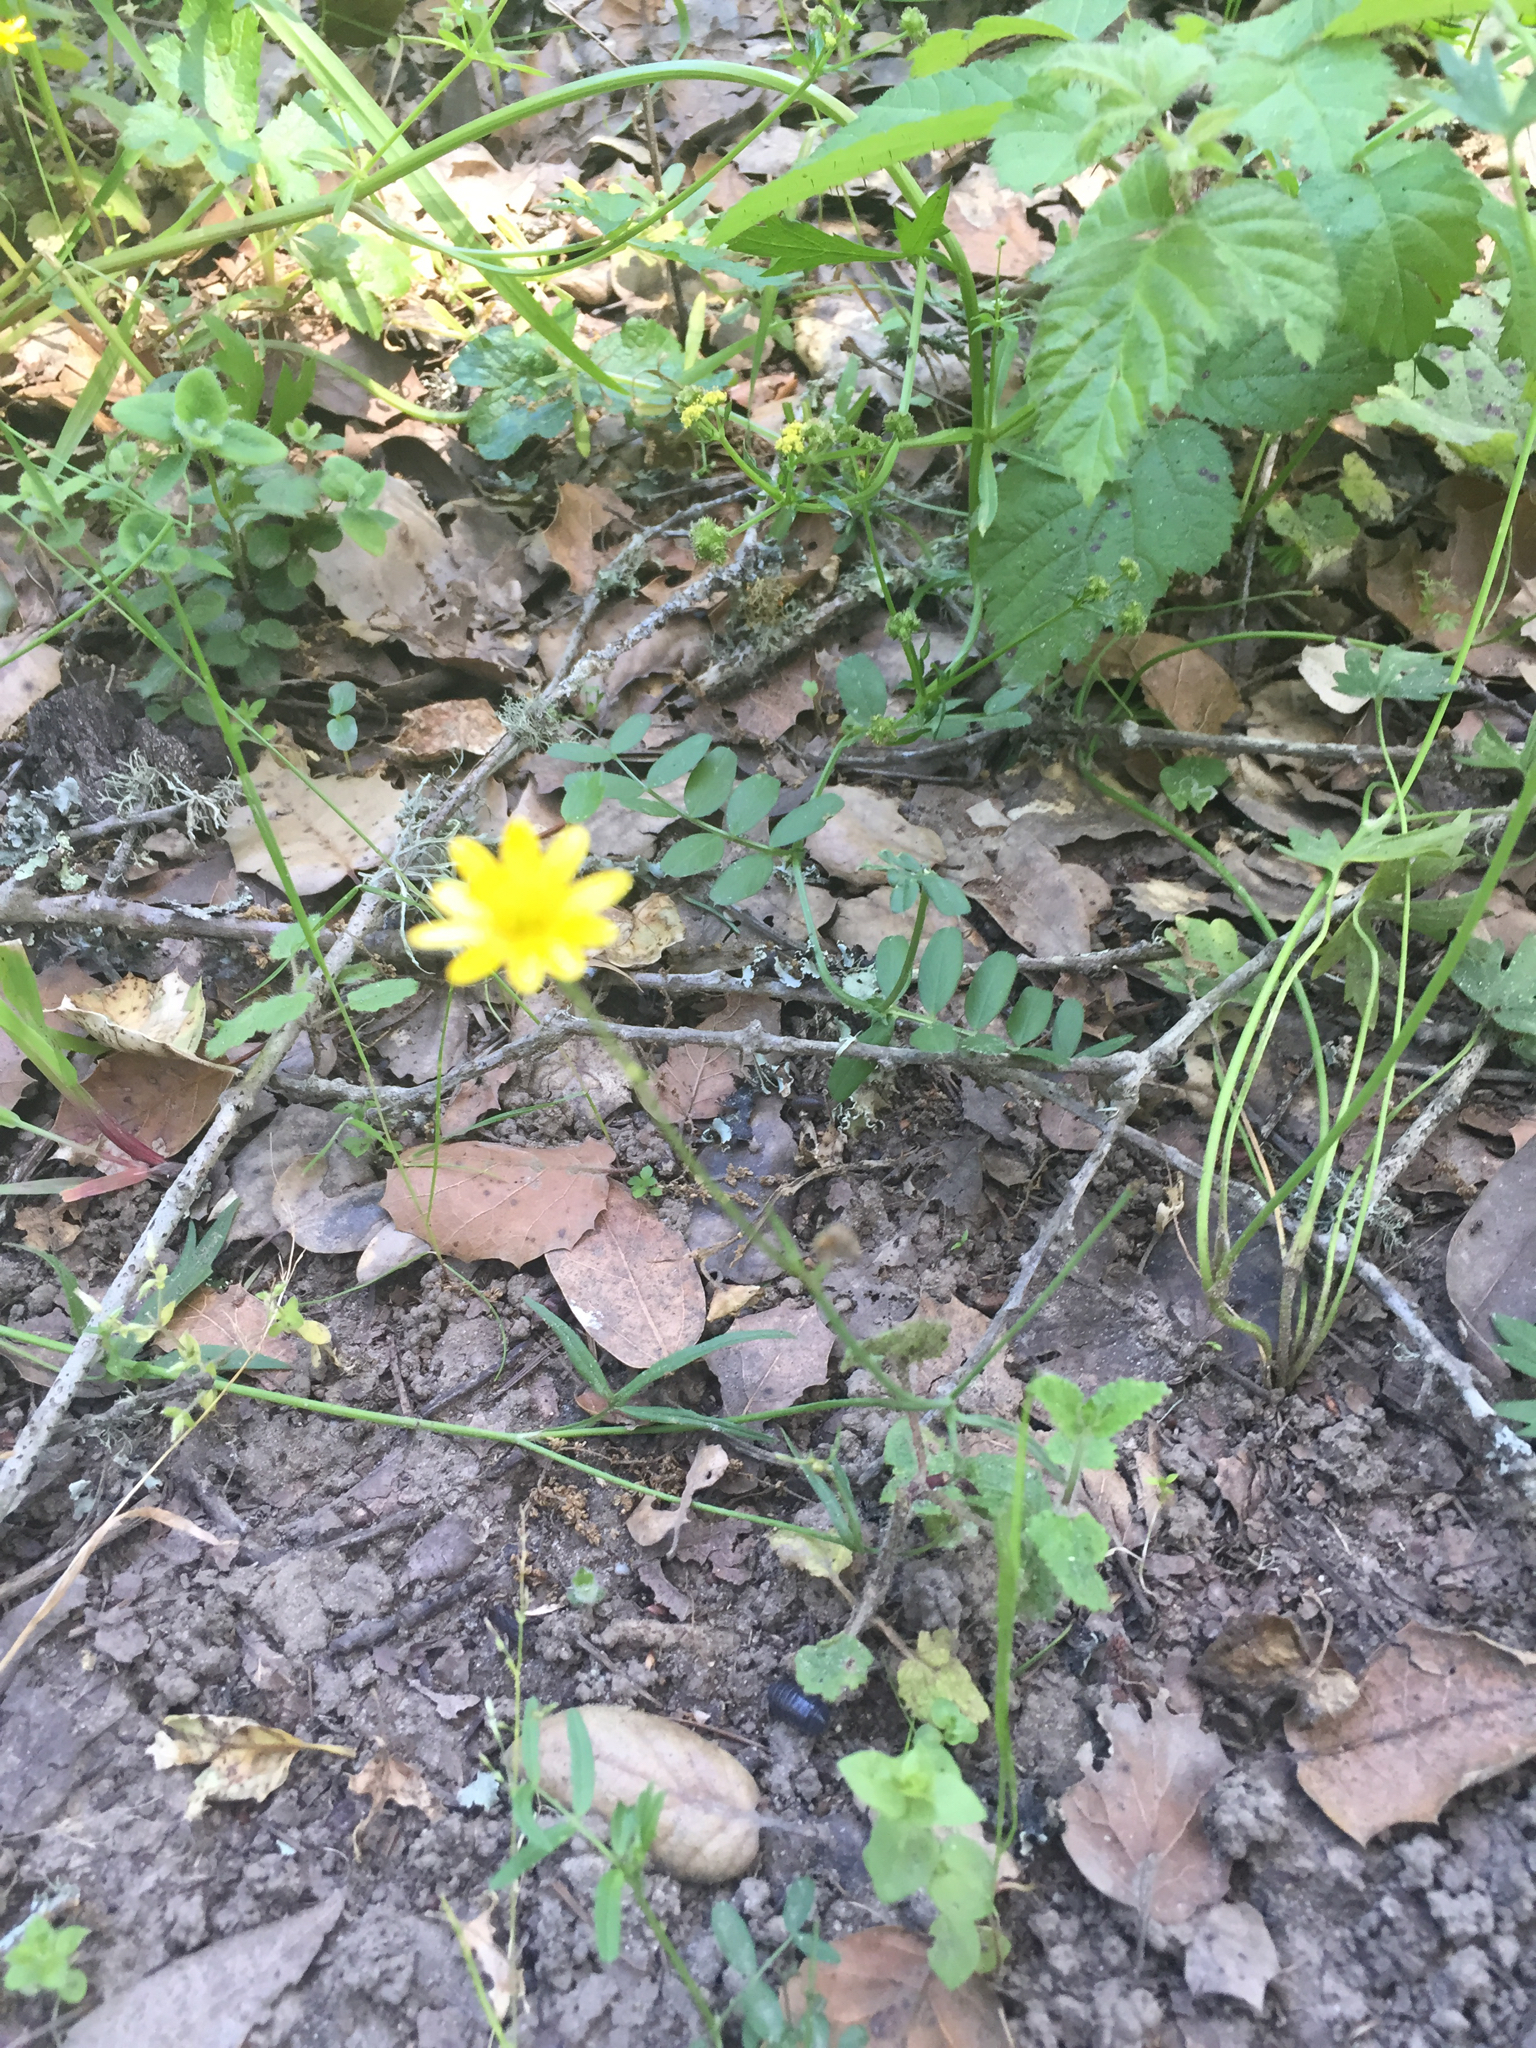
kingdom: Plantae
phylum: Tracheophyta
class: Magnoliopsida
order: Ranunculales
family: Ranunculaceae
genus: Ranunculus
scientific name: Ranunculus californicus
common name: California buttercup
